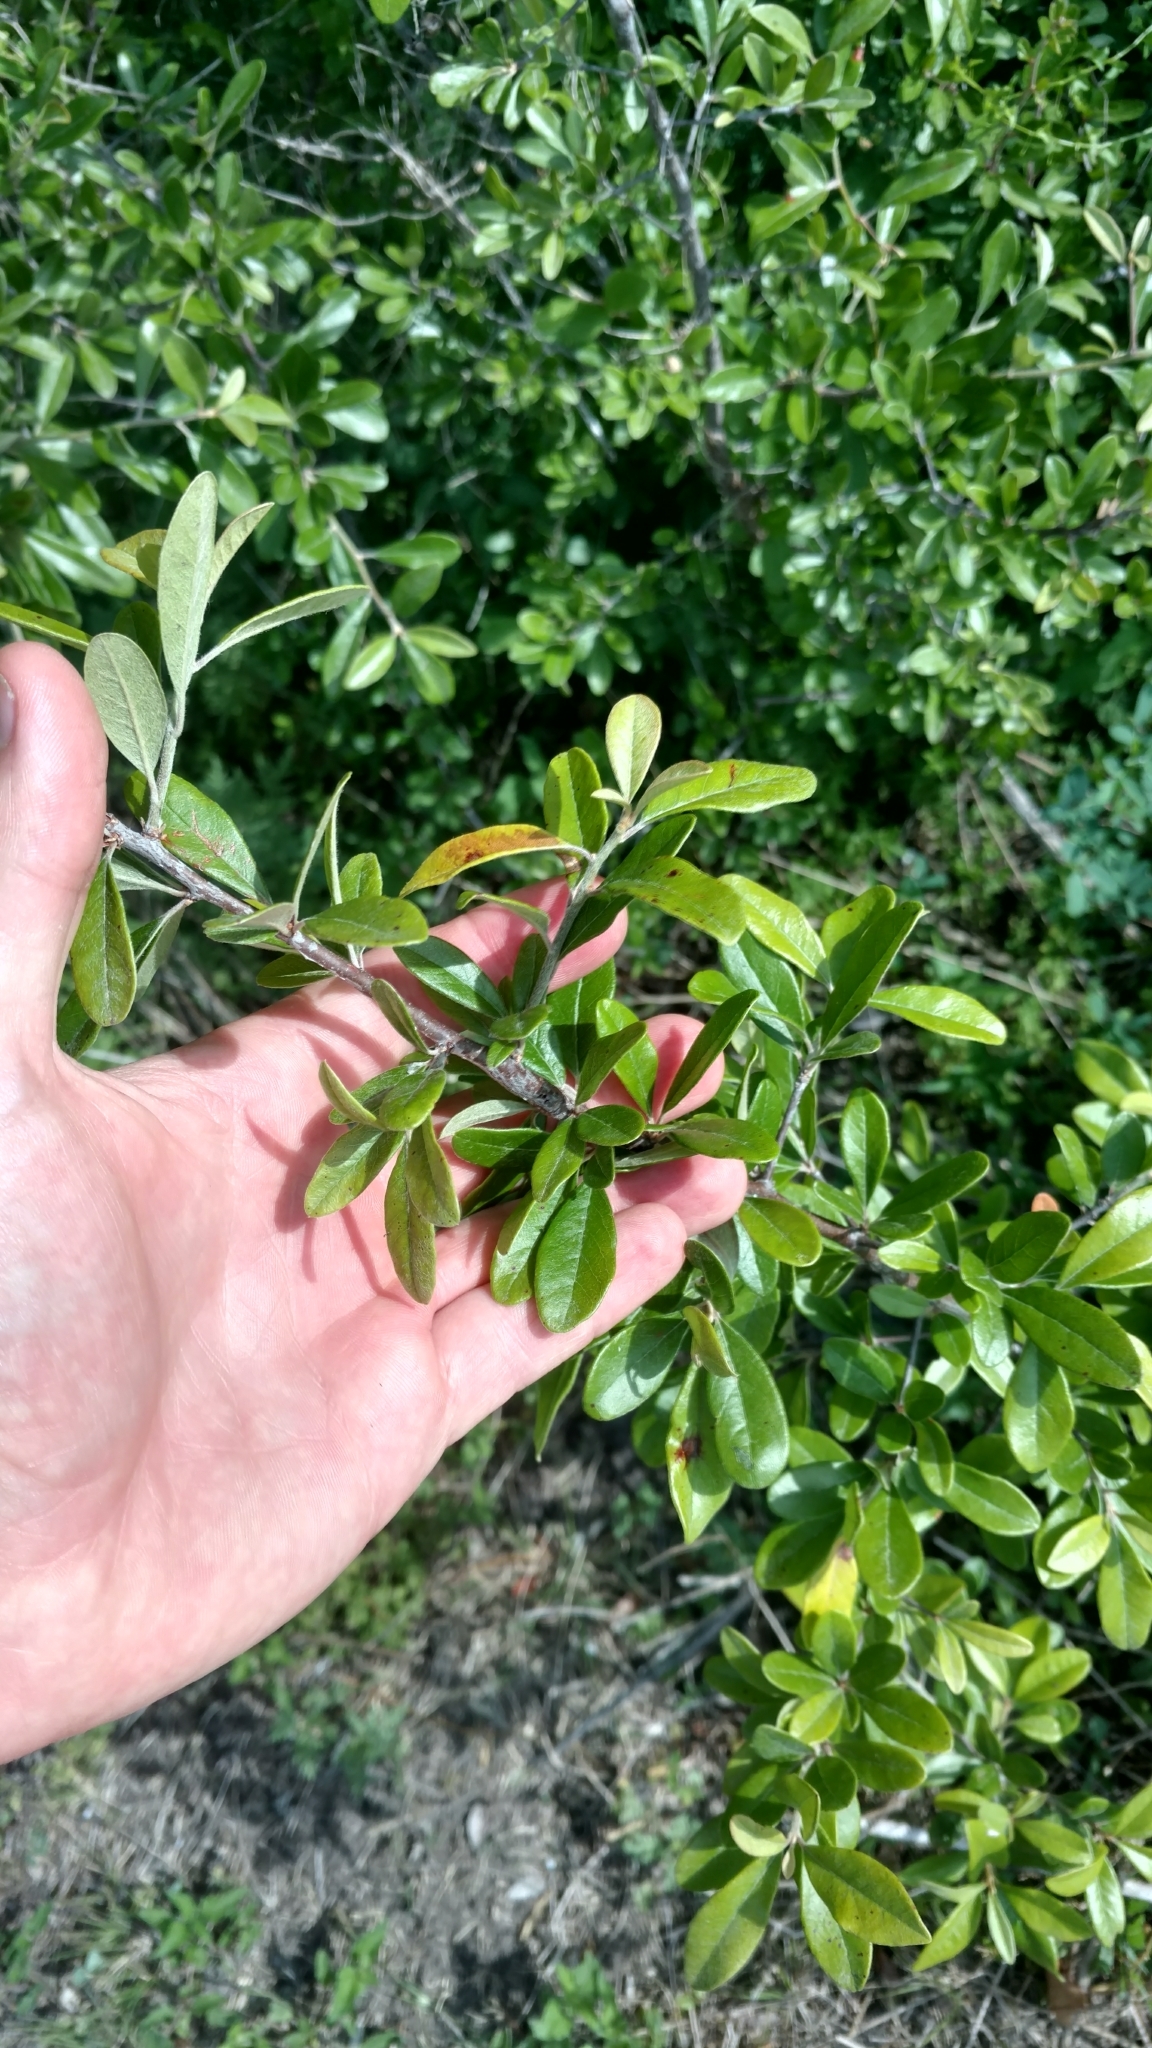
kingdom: Plantae
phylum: Tracheophyta
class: Magnoliopsida
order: Ericales
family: Sapotaceae
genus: Sideroxylon
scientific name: Sideroxylon lanuginosum
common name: Chittamwood
